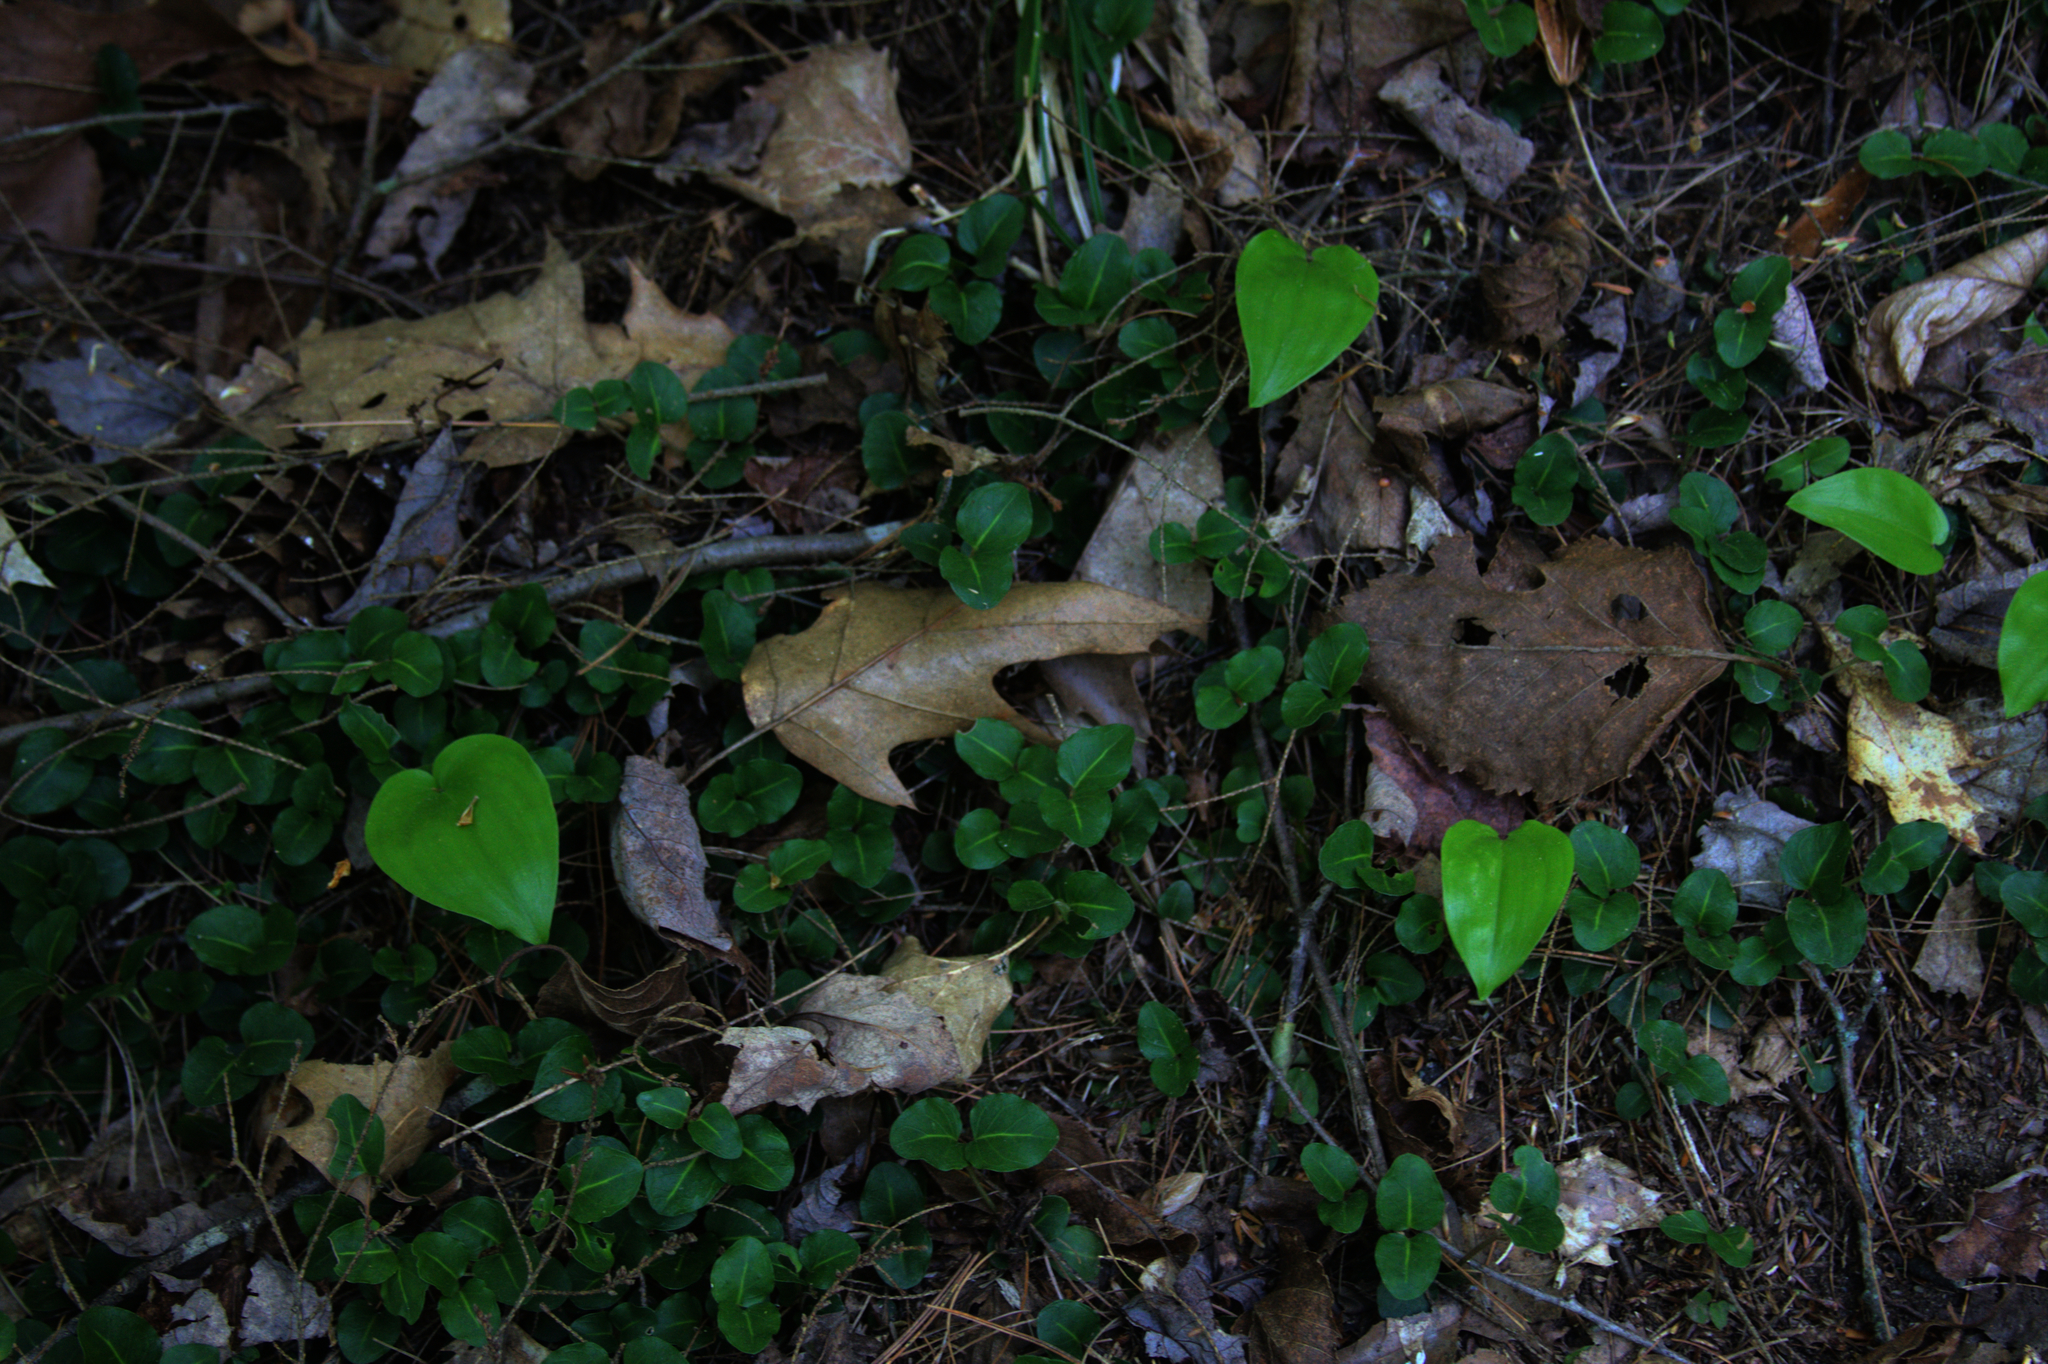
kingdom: Plantae
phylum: Tracheophyta
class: Magnoliopsida
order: Gentianales
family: Rubiaceae
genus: Mitchella
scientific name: Mitchella repens
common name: Partridge-berry
